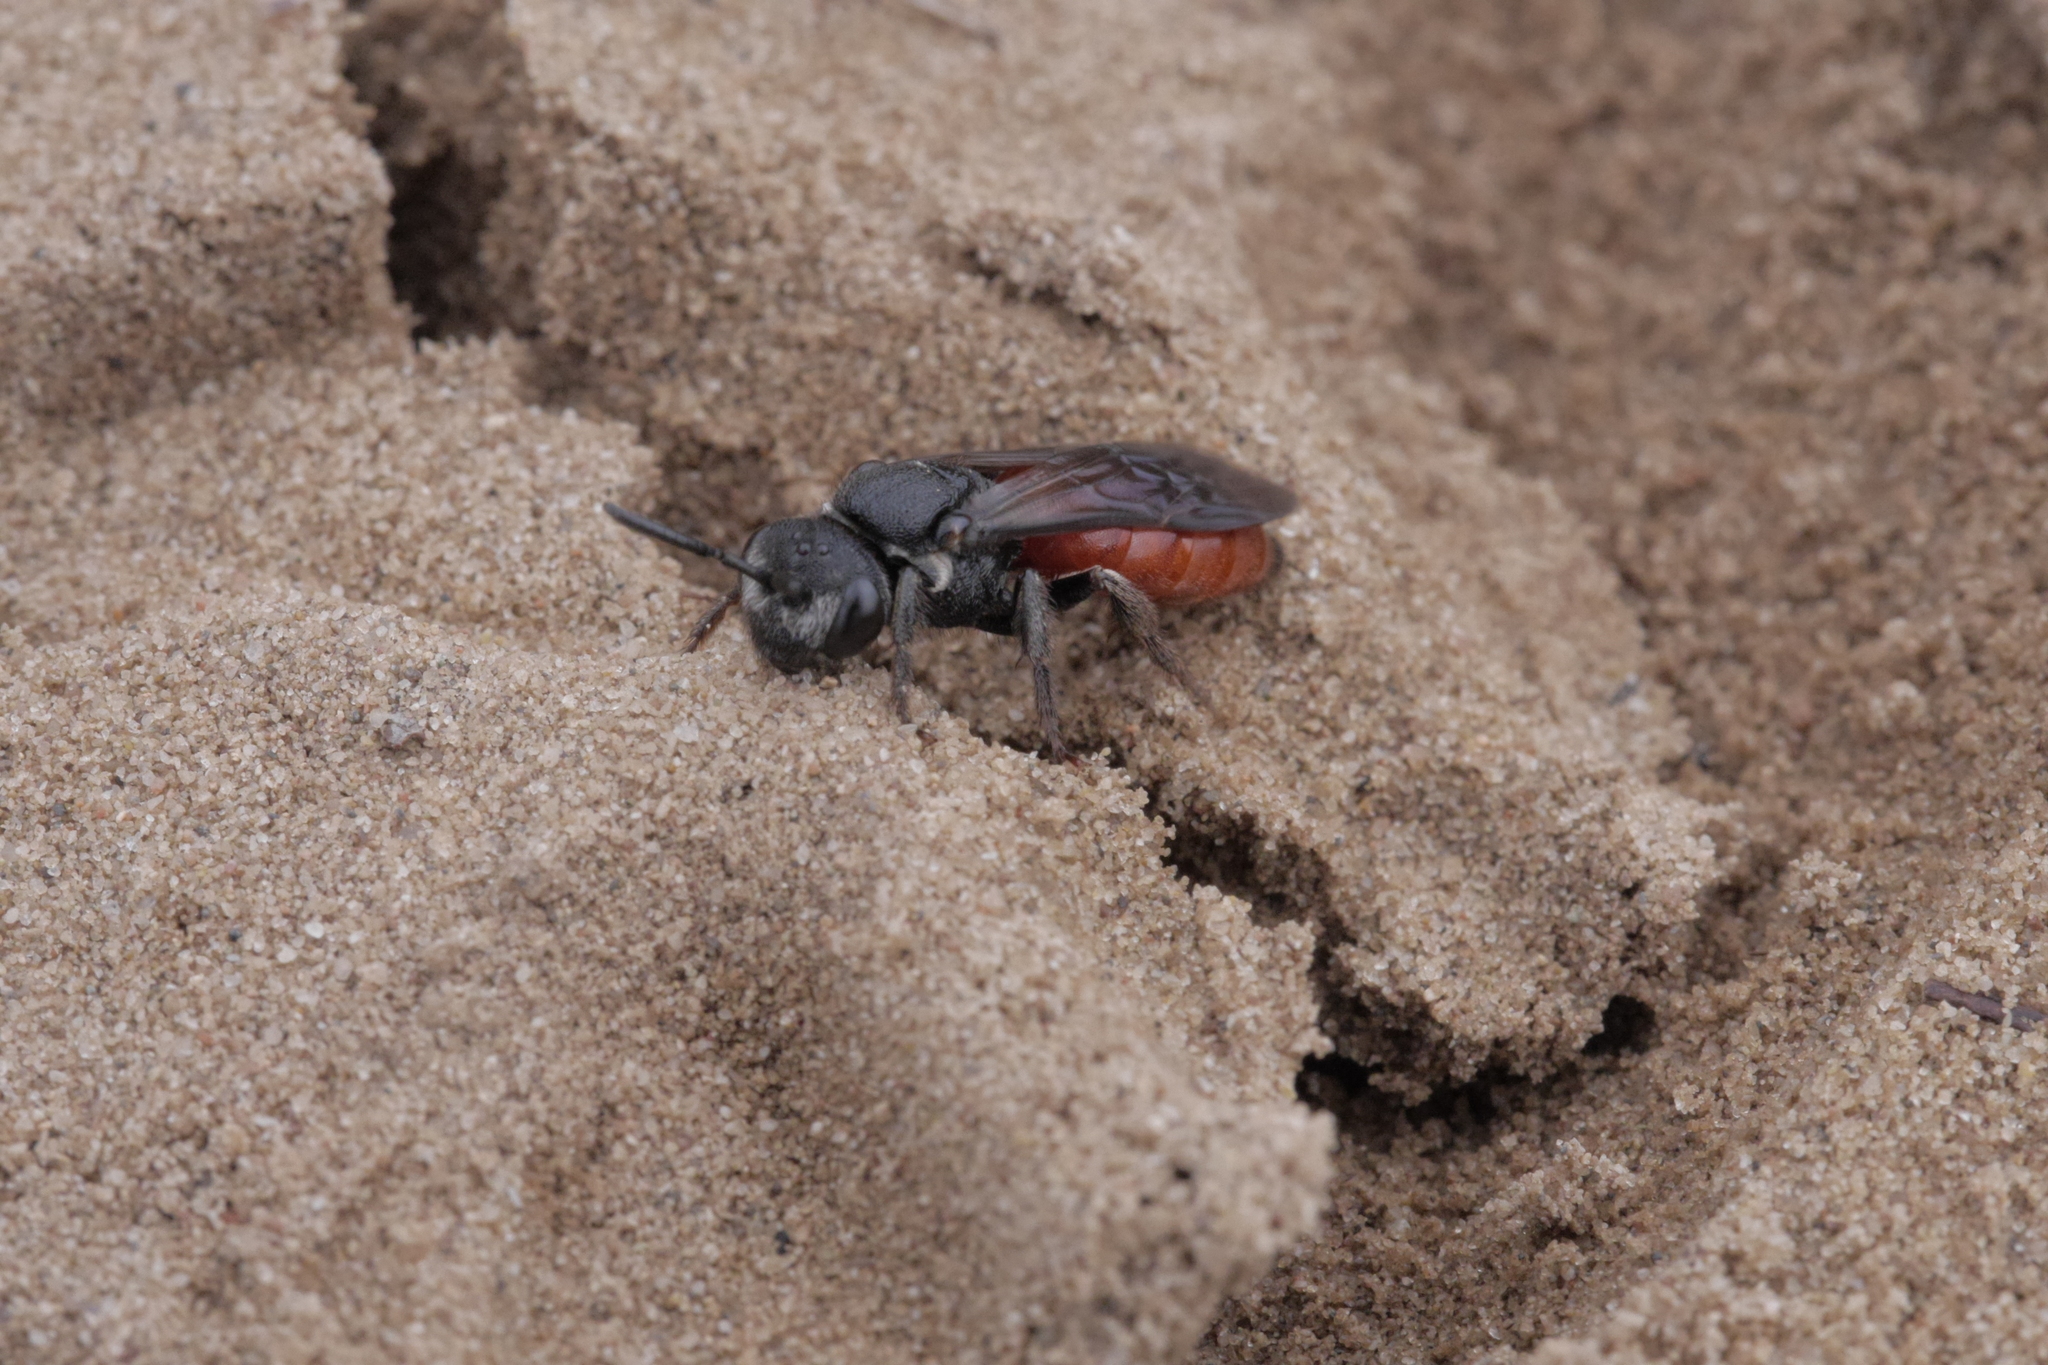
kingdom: Animalia
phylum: Arthropoda
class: Insecta
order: Hymenoptera
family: Halictidae
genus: Sphecodes
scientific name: Sphecodes albilabris
